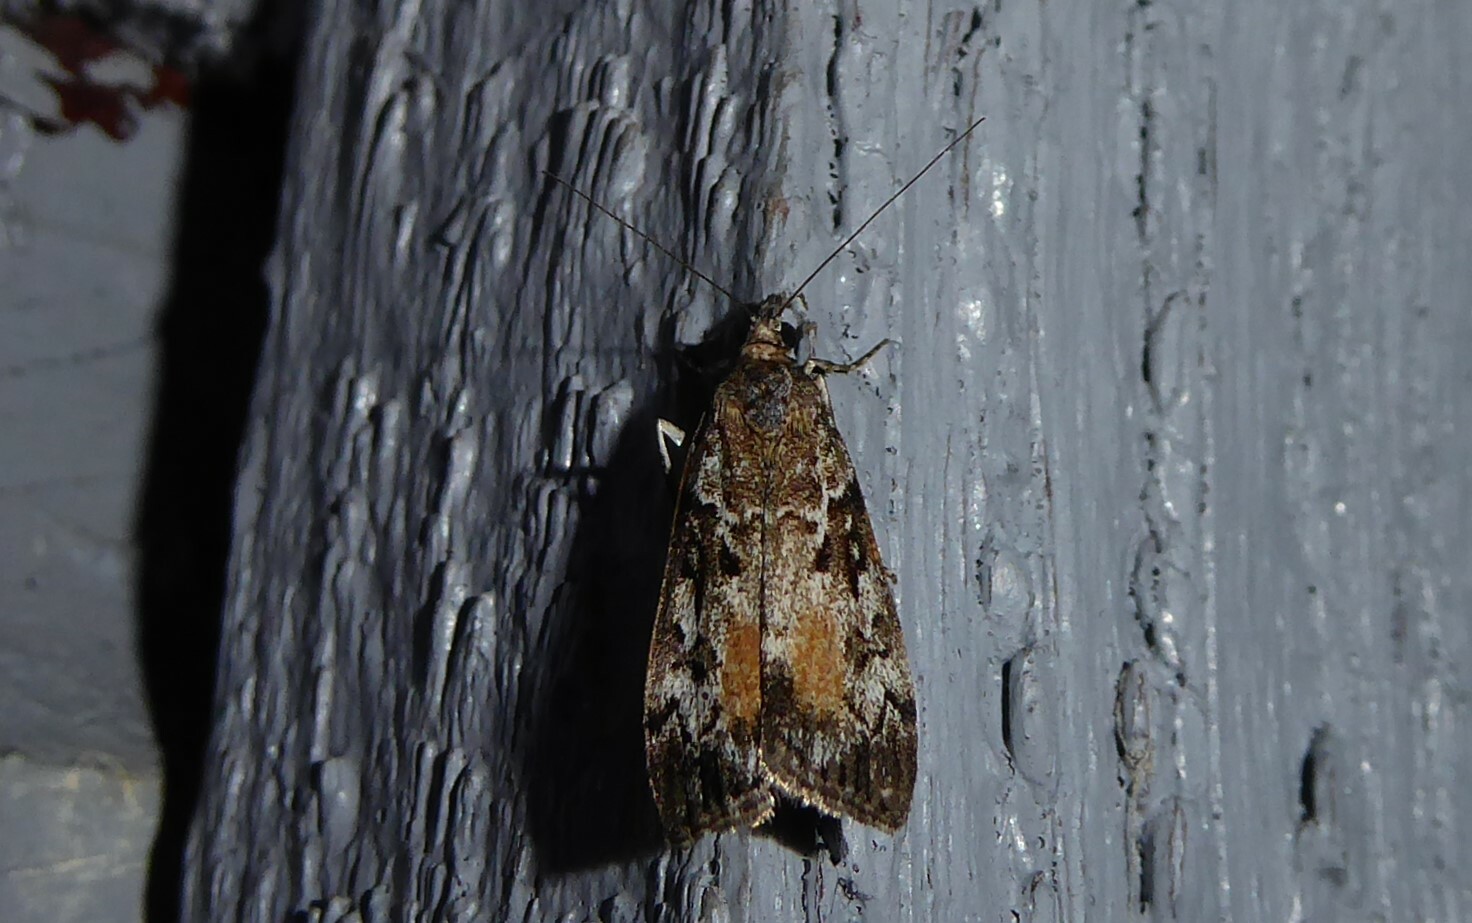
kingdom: Animalia
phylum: Arthropoda
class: Insecta
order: Lepidoptera
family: Crambidae
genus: Eudonia
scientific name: Eudonia submarginalis
